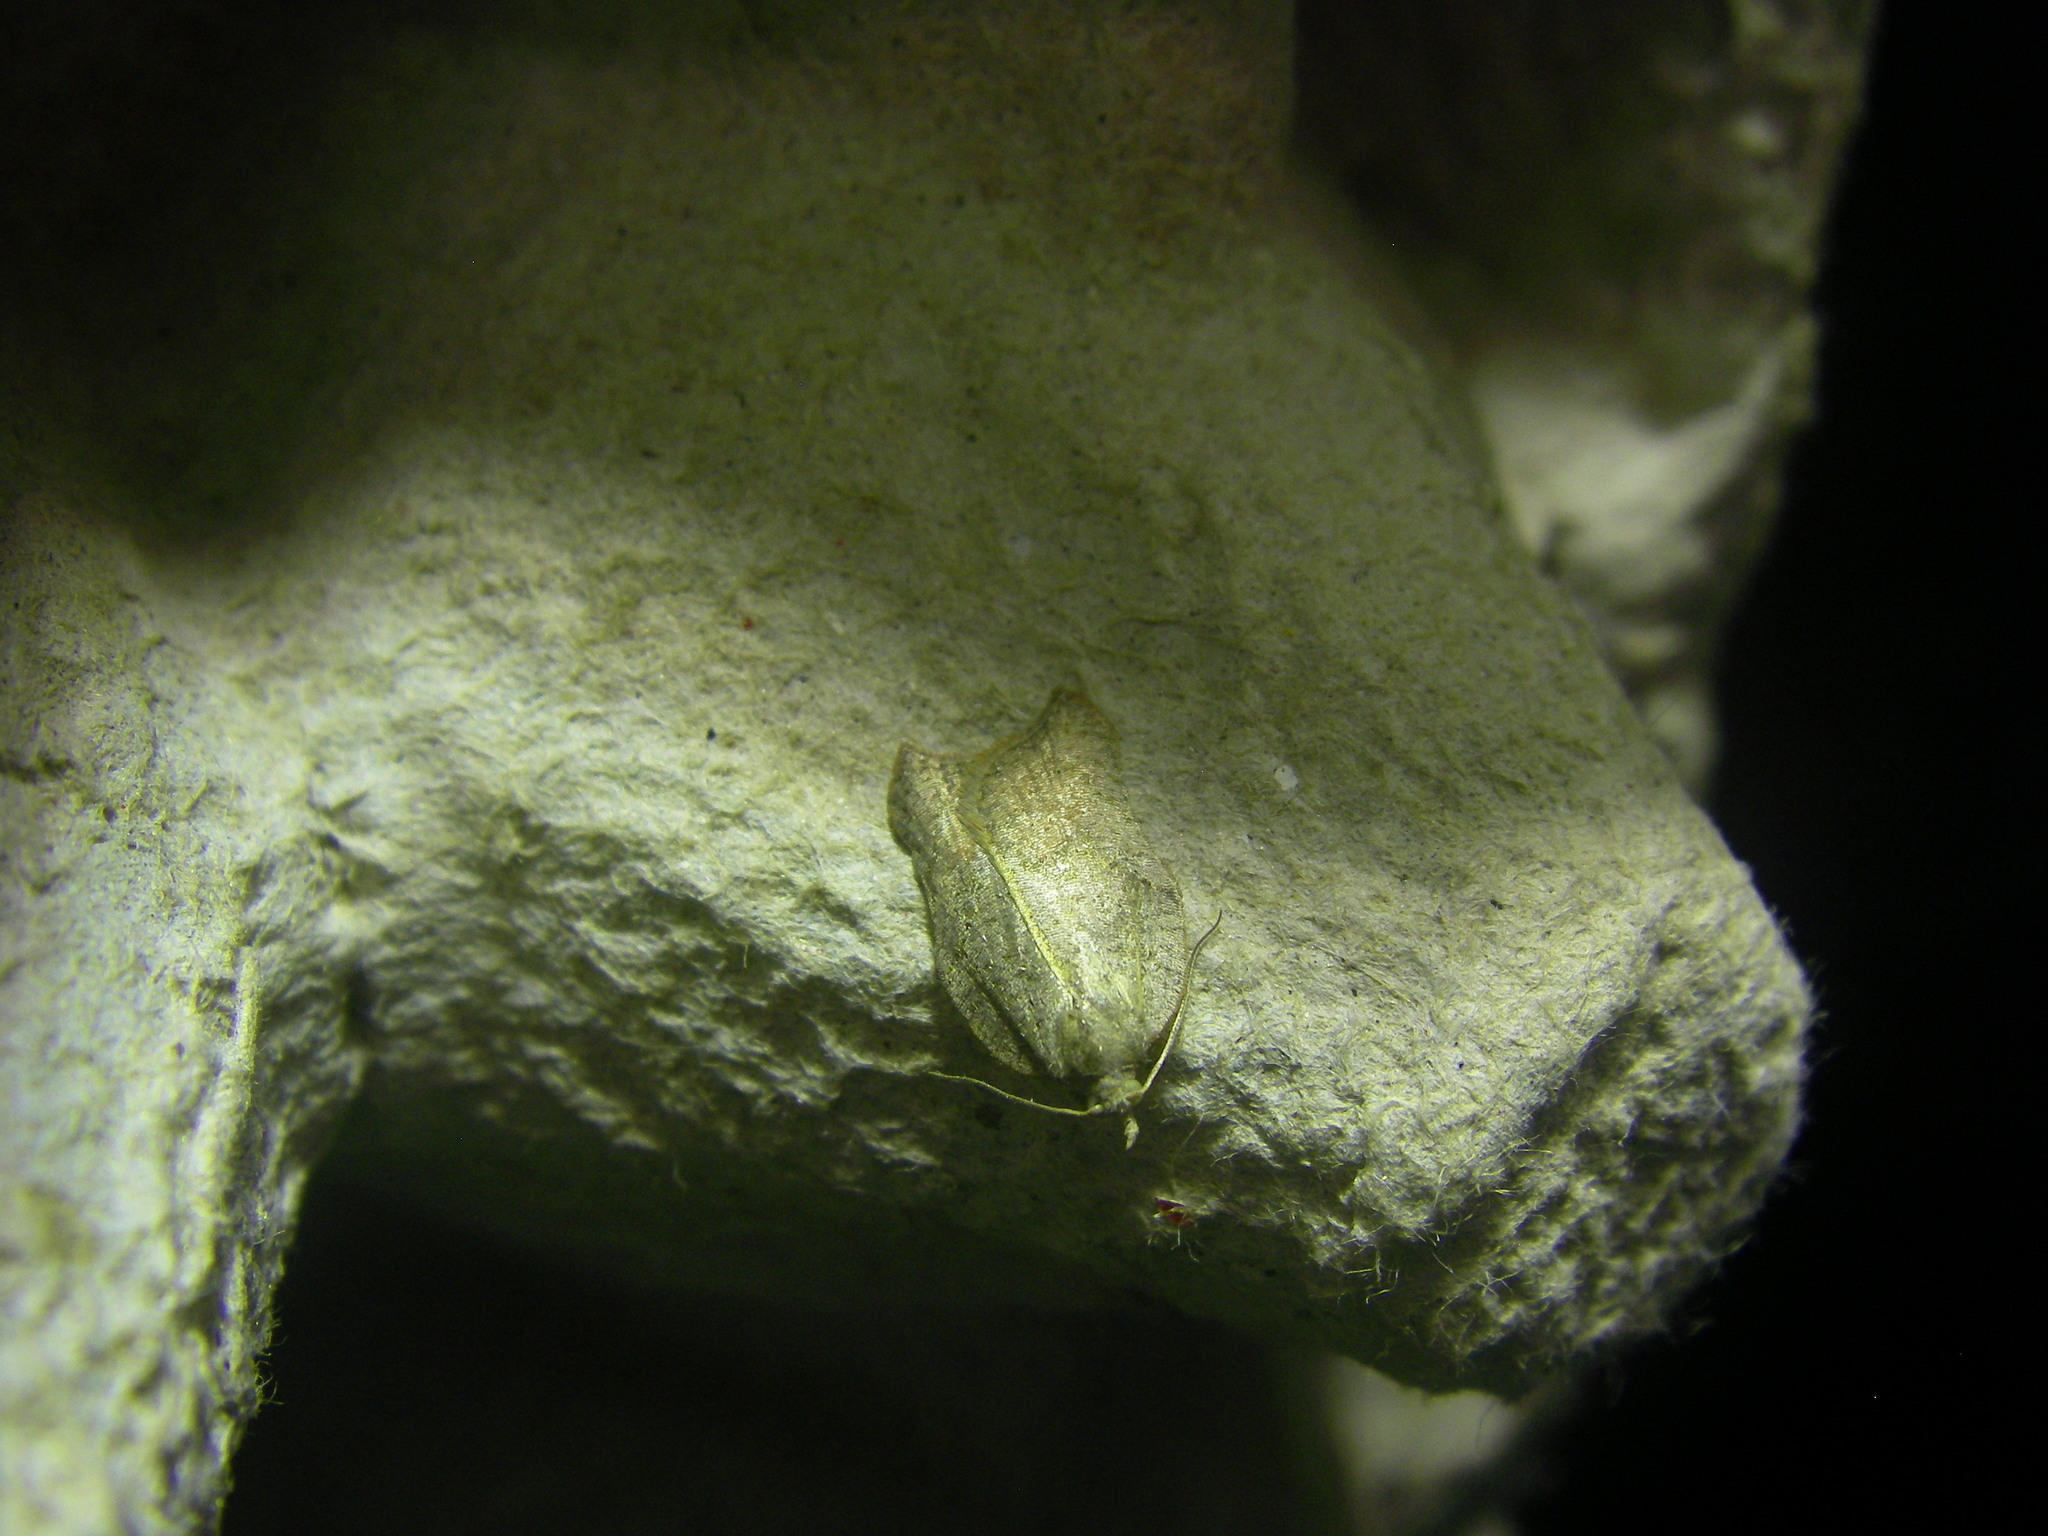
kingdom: Animalia
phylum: Arthropoda
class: Insecta
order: Lepidoptera
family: Tortricidae
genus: Acleris
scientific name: Acleris emargana
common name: Notch-wing button
